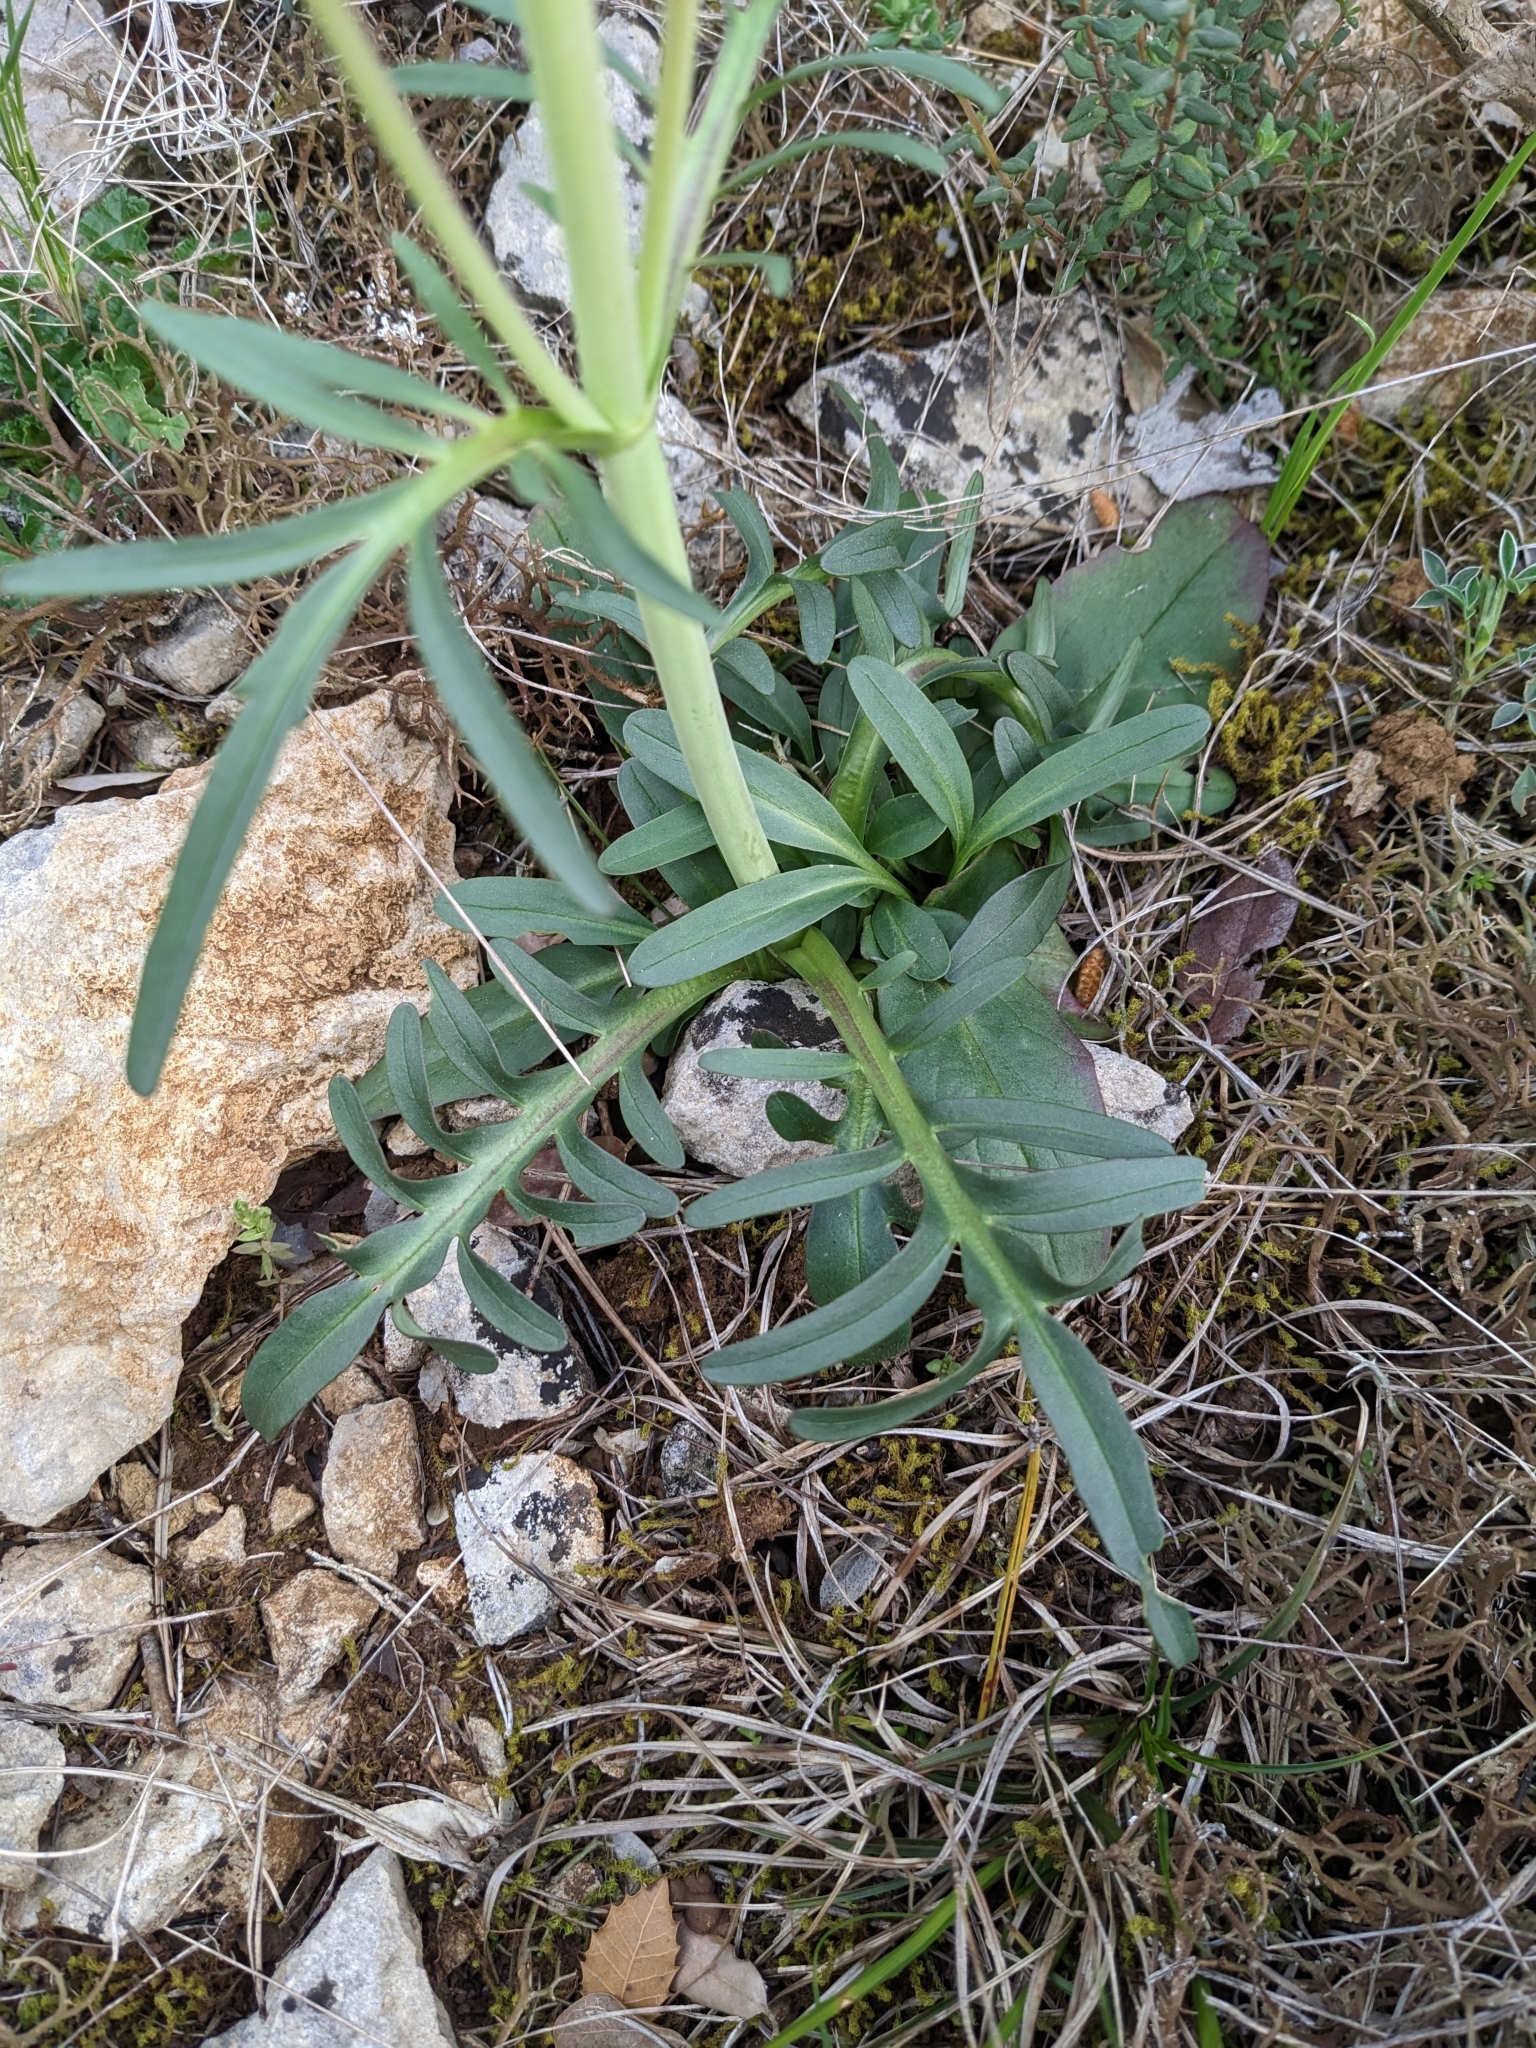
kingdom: Plantae
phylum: Tracheophyta
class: Magnoliopsida
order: Dipsacales
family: Caprifoliaceae
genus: Valeriana
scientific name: Valeriana tuberosa
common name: Tuberous valerian
